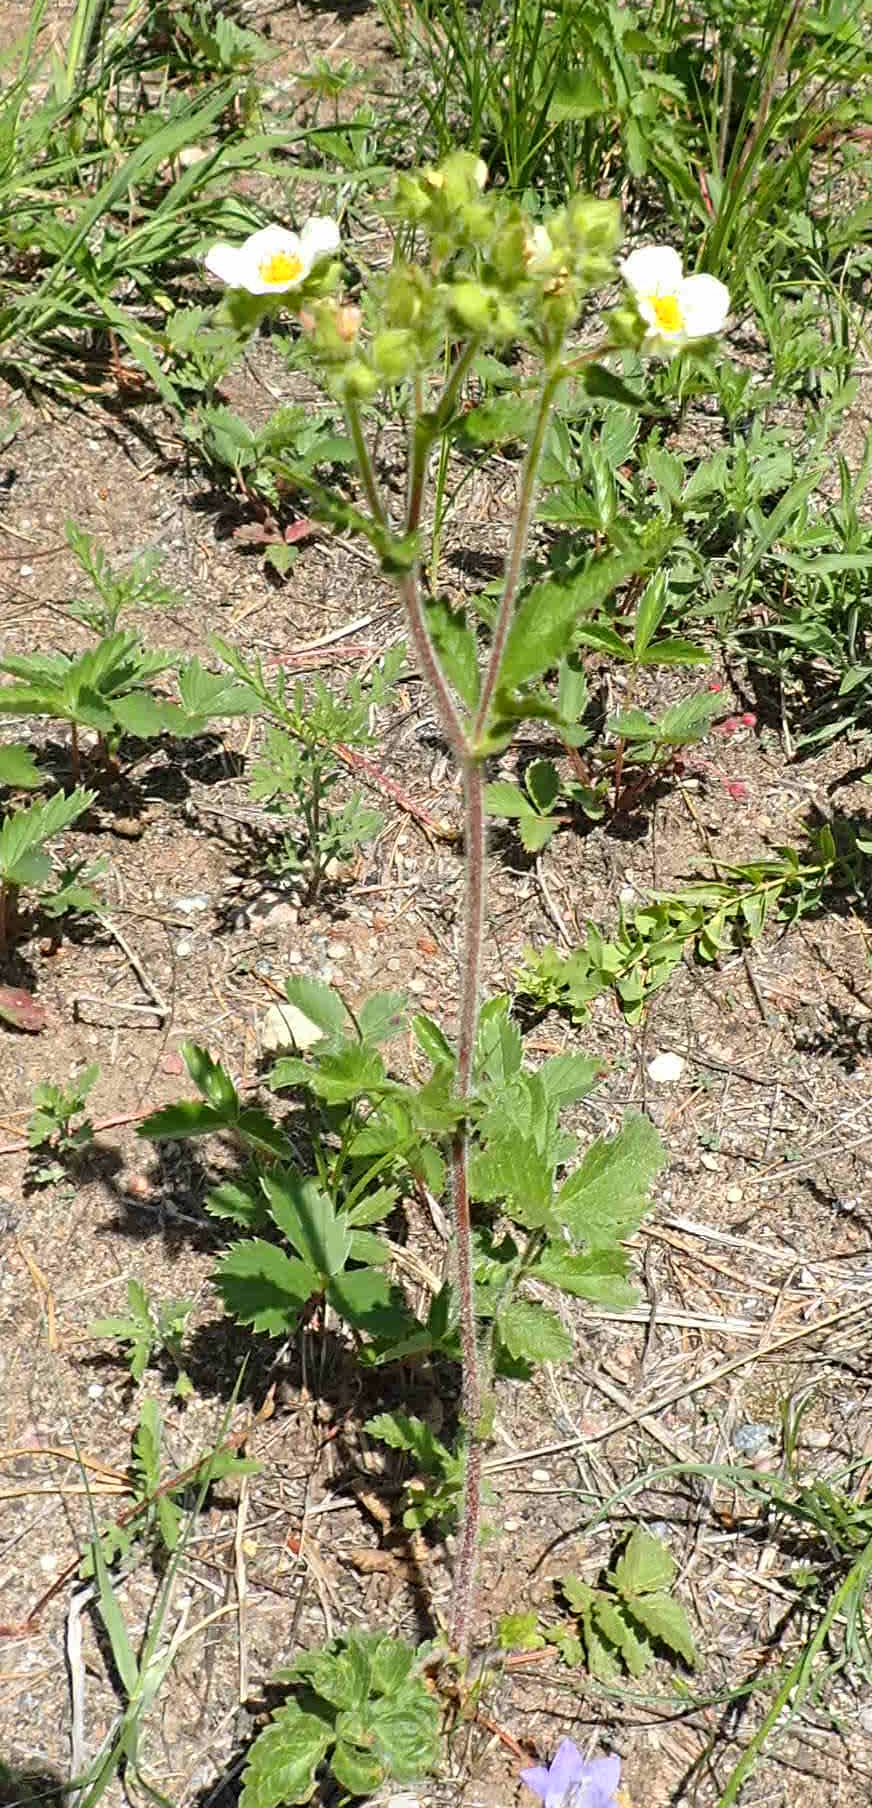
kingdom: Plantae
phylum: Tracheophyta
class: Magnoliopsida
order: Rosales
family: Rosaceae
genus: Drymocallis
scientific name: Drymocallis arguta
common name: Tall cinquefoil
